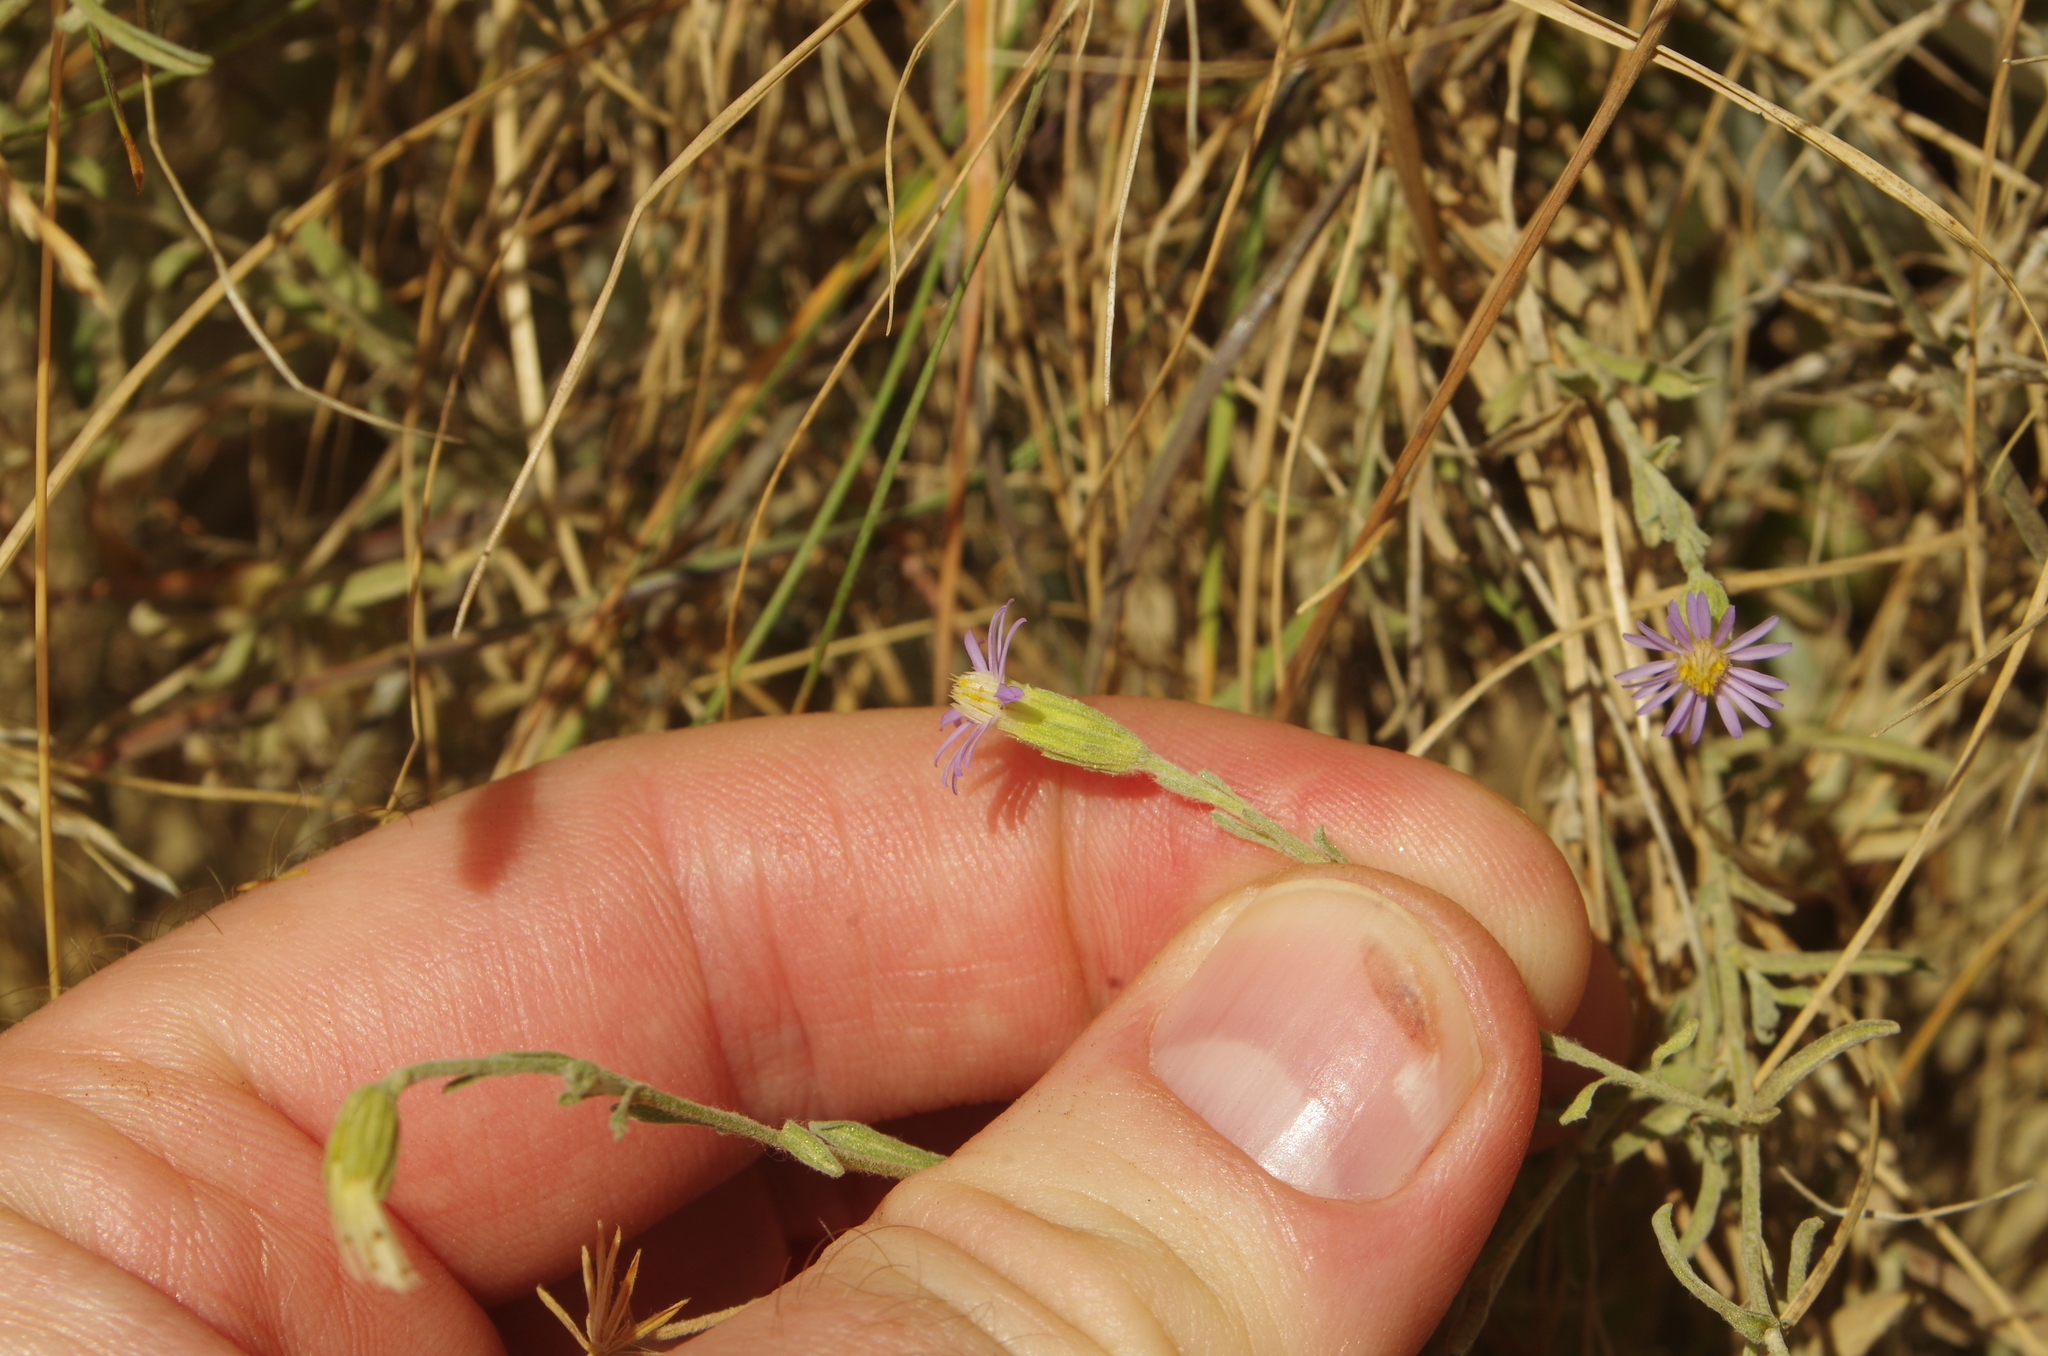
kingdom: Plantae
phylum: Tracheophyta
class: Magnoliopsida
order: Asterales
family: Asteraceae
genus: Vittadinia
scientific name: Vittadinia gracilis
